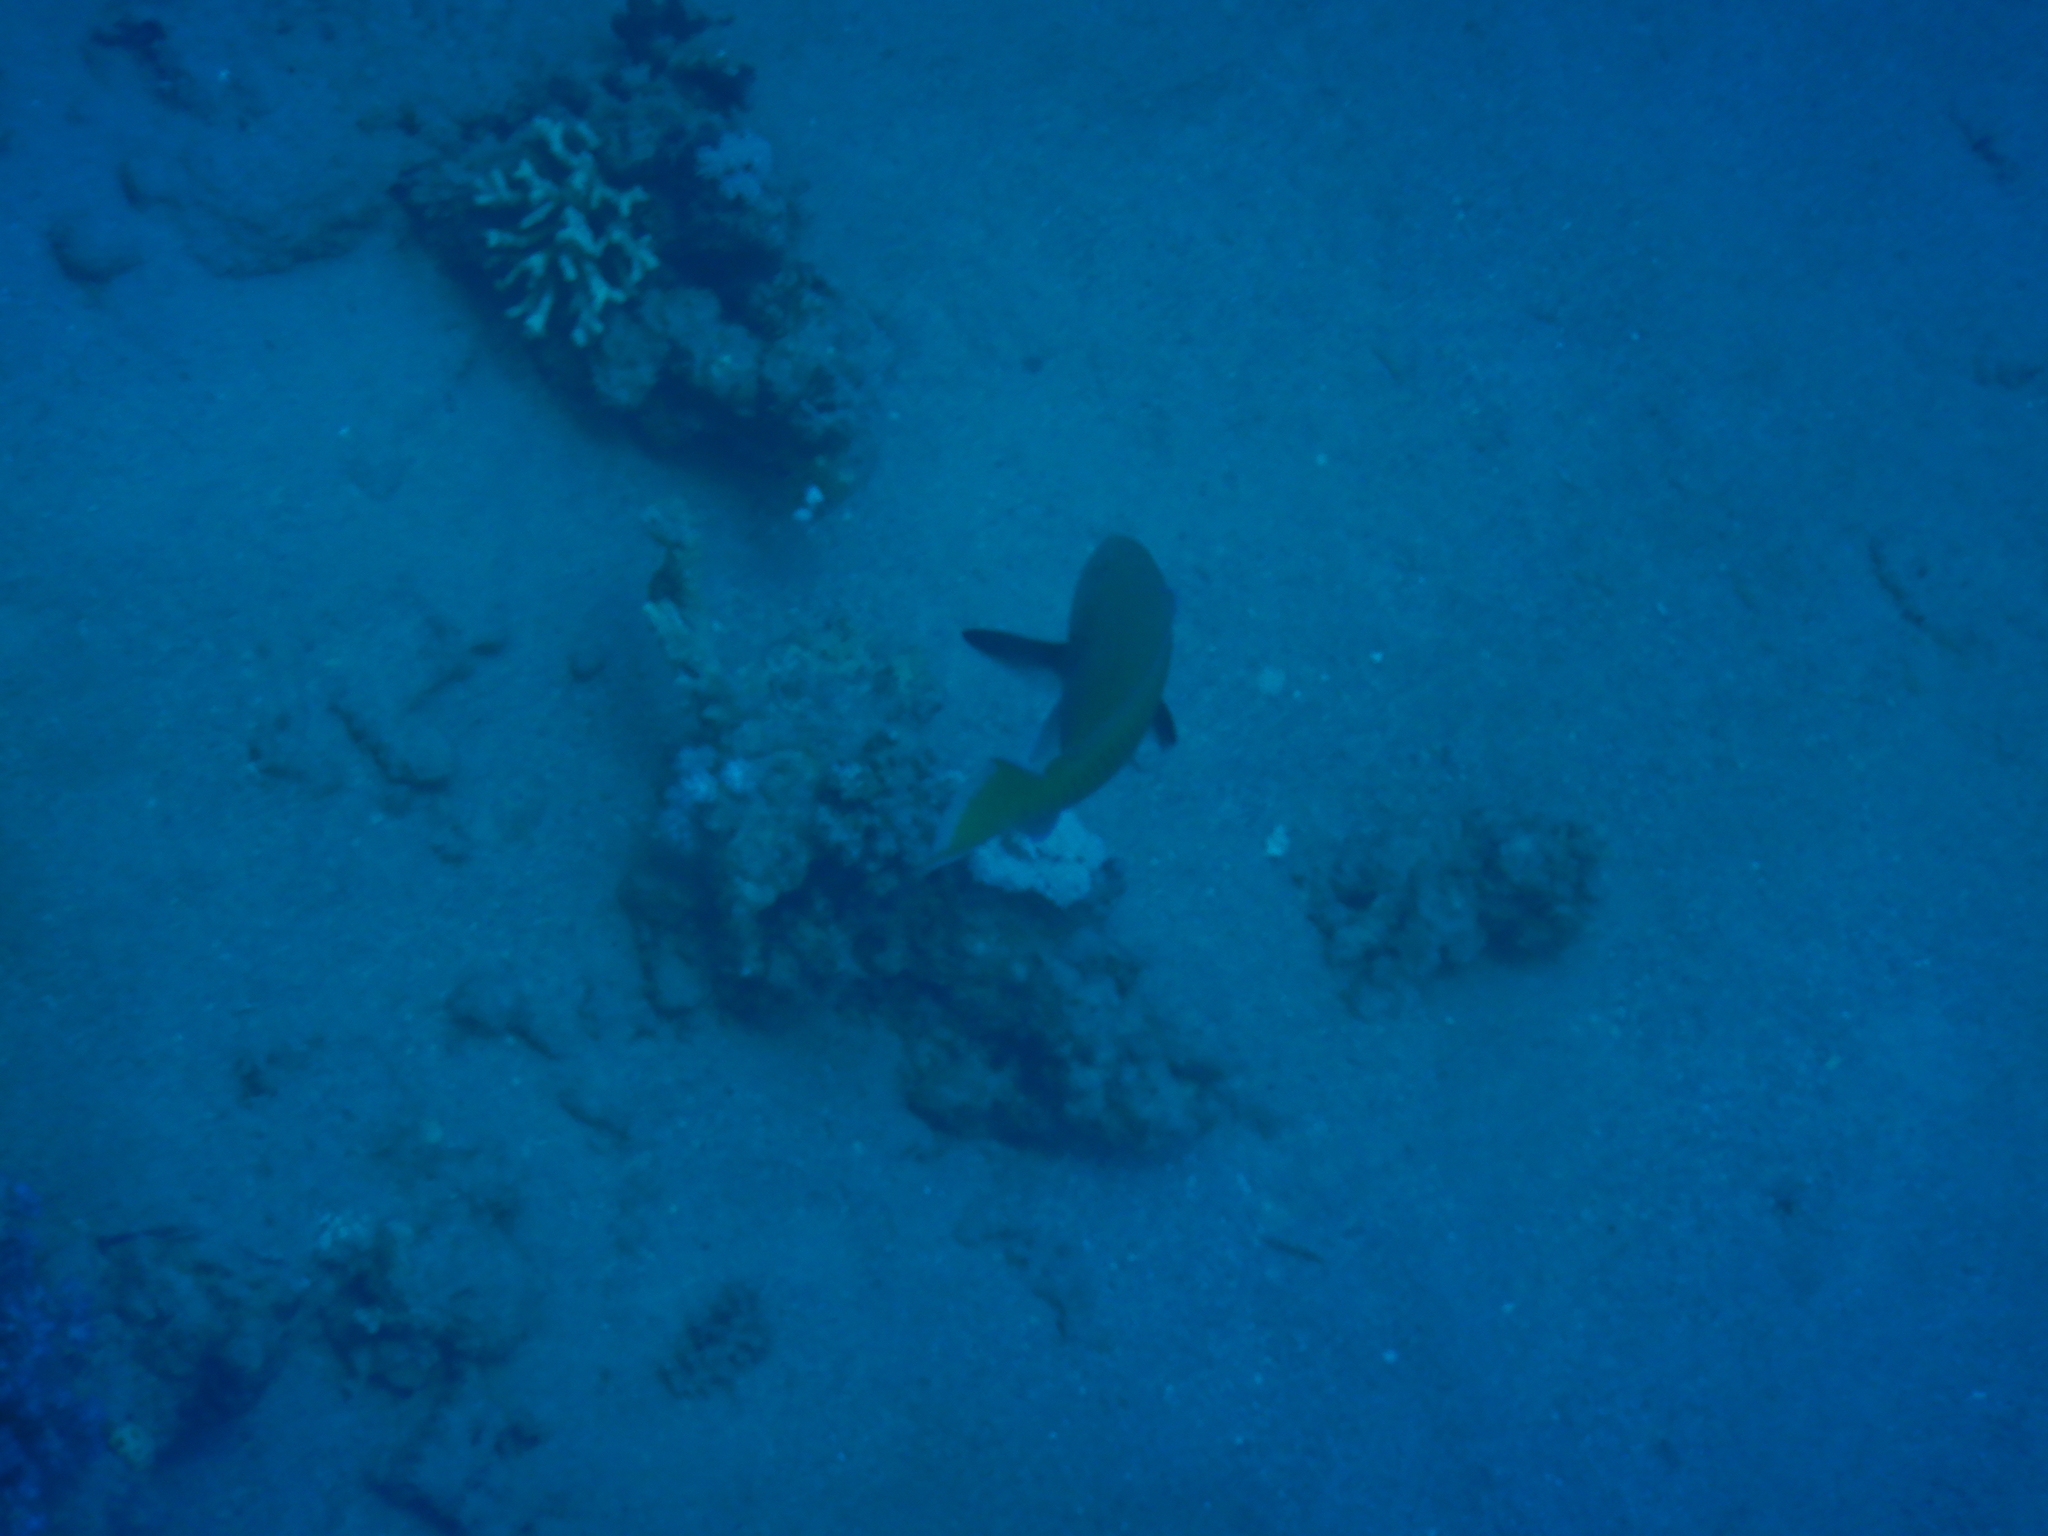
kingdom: Animalia
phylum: Chordata
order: Perciformes
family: Scaridae
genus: Chlorurus
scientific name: Chlorurus gibbus
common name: Heavybeak parrotfish
